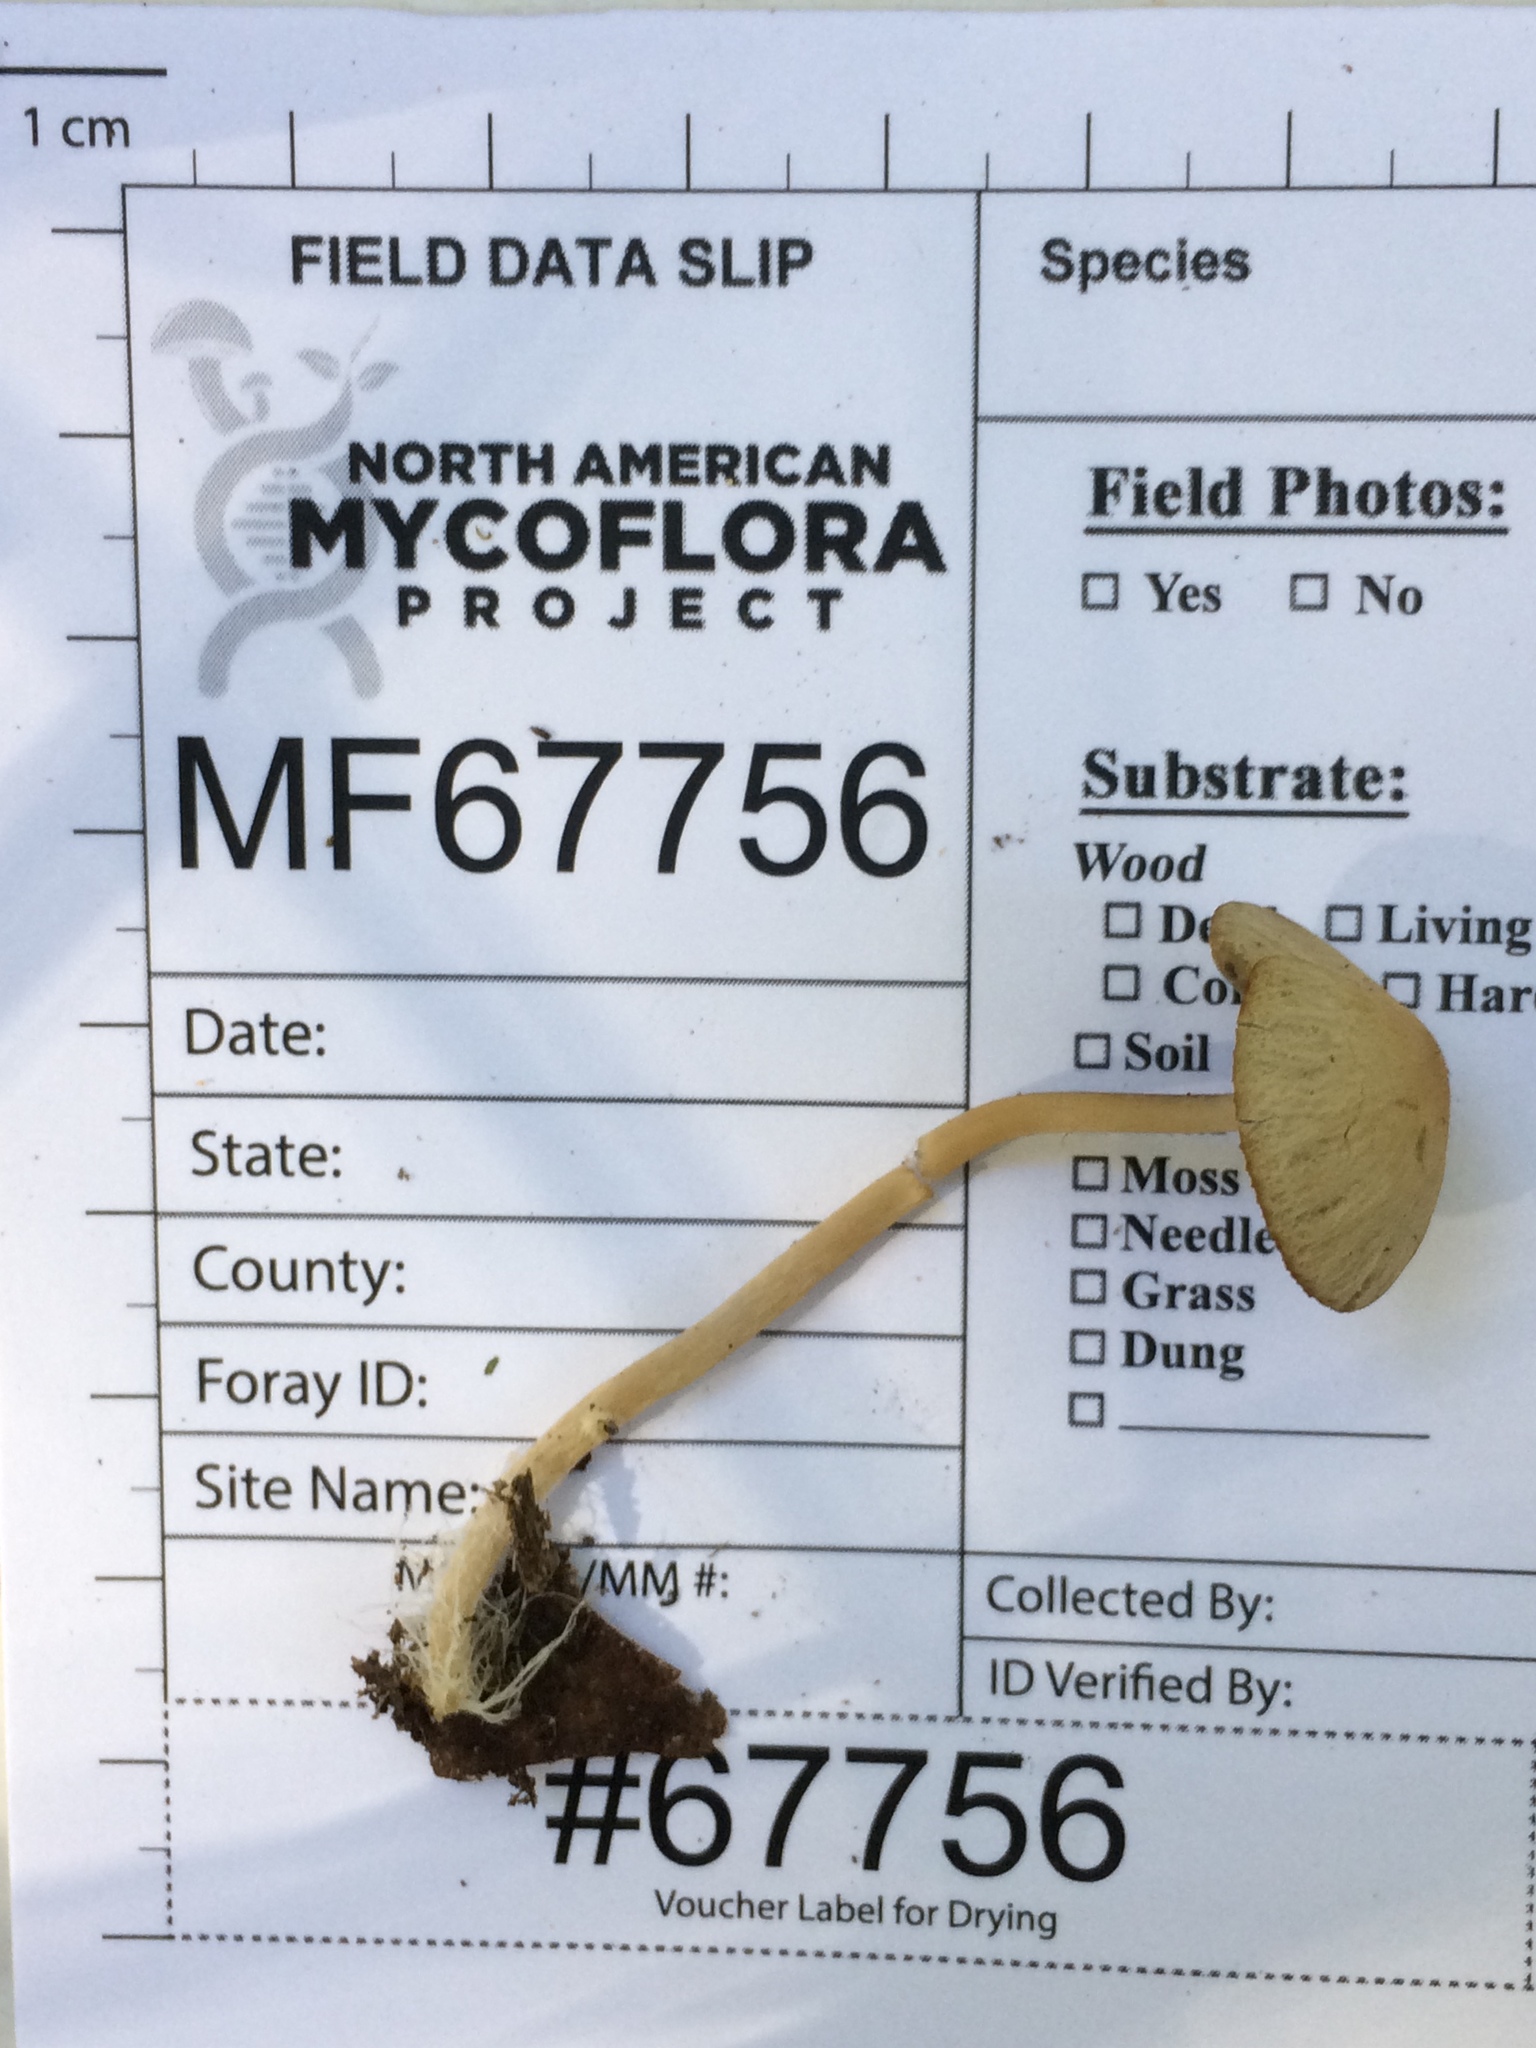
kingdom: Fungi
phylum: Basidiomycota
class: Agaricomycetes
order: Agaricales
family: Psathyrellaceae
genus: Psathyrella
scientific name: Psathyrella amarescens
